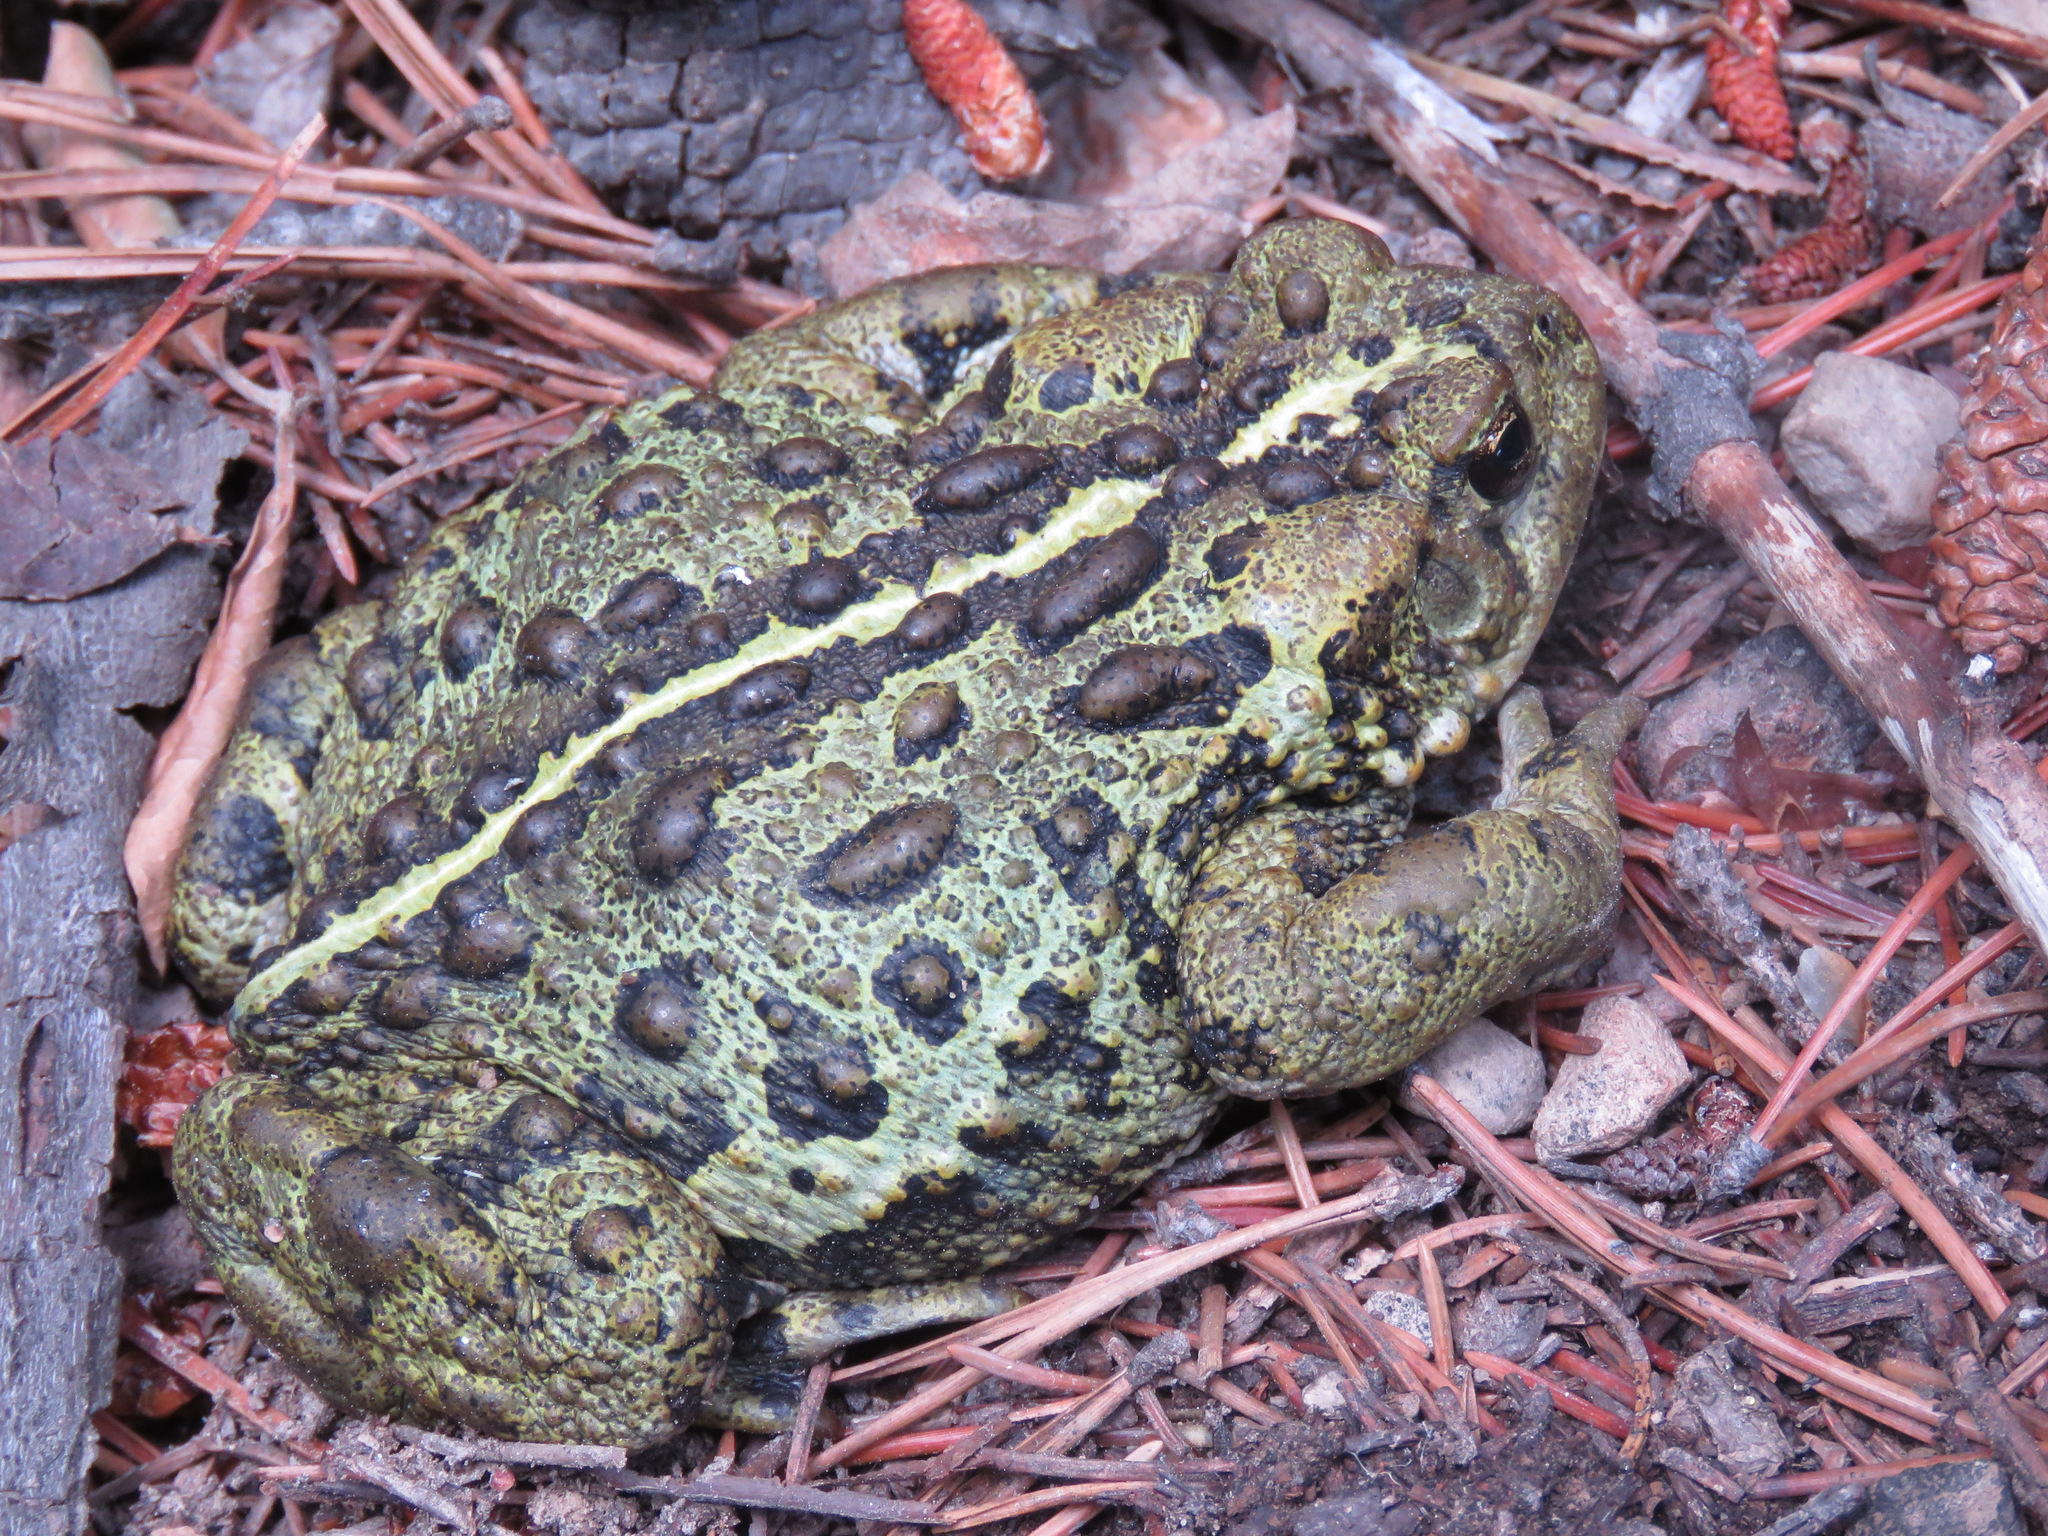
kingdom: Animalia
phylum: Chordata
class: Amphibia
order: Anura
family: Bufonidae
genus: Anaxyrus
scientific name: Anaxyrus boreas
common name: Western toad
